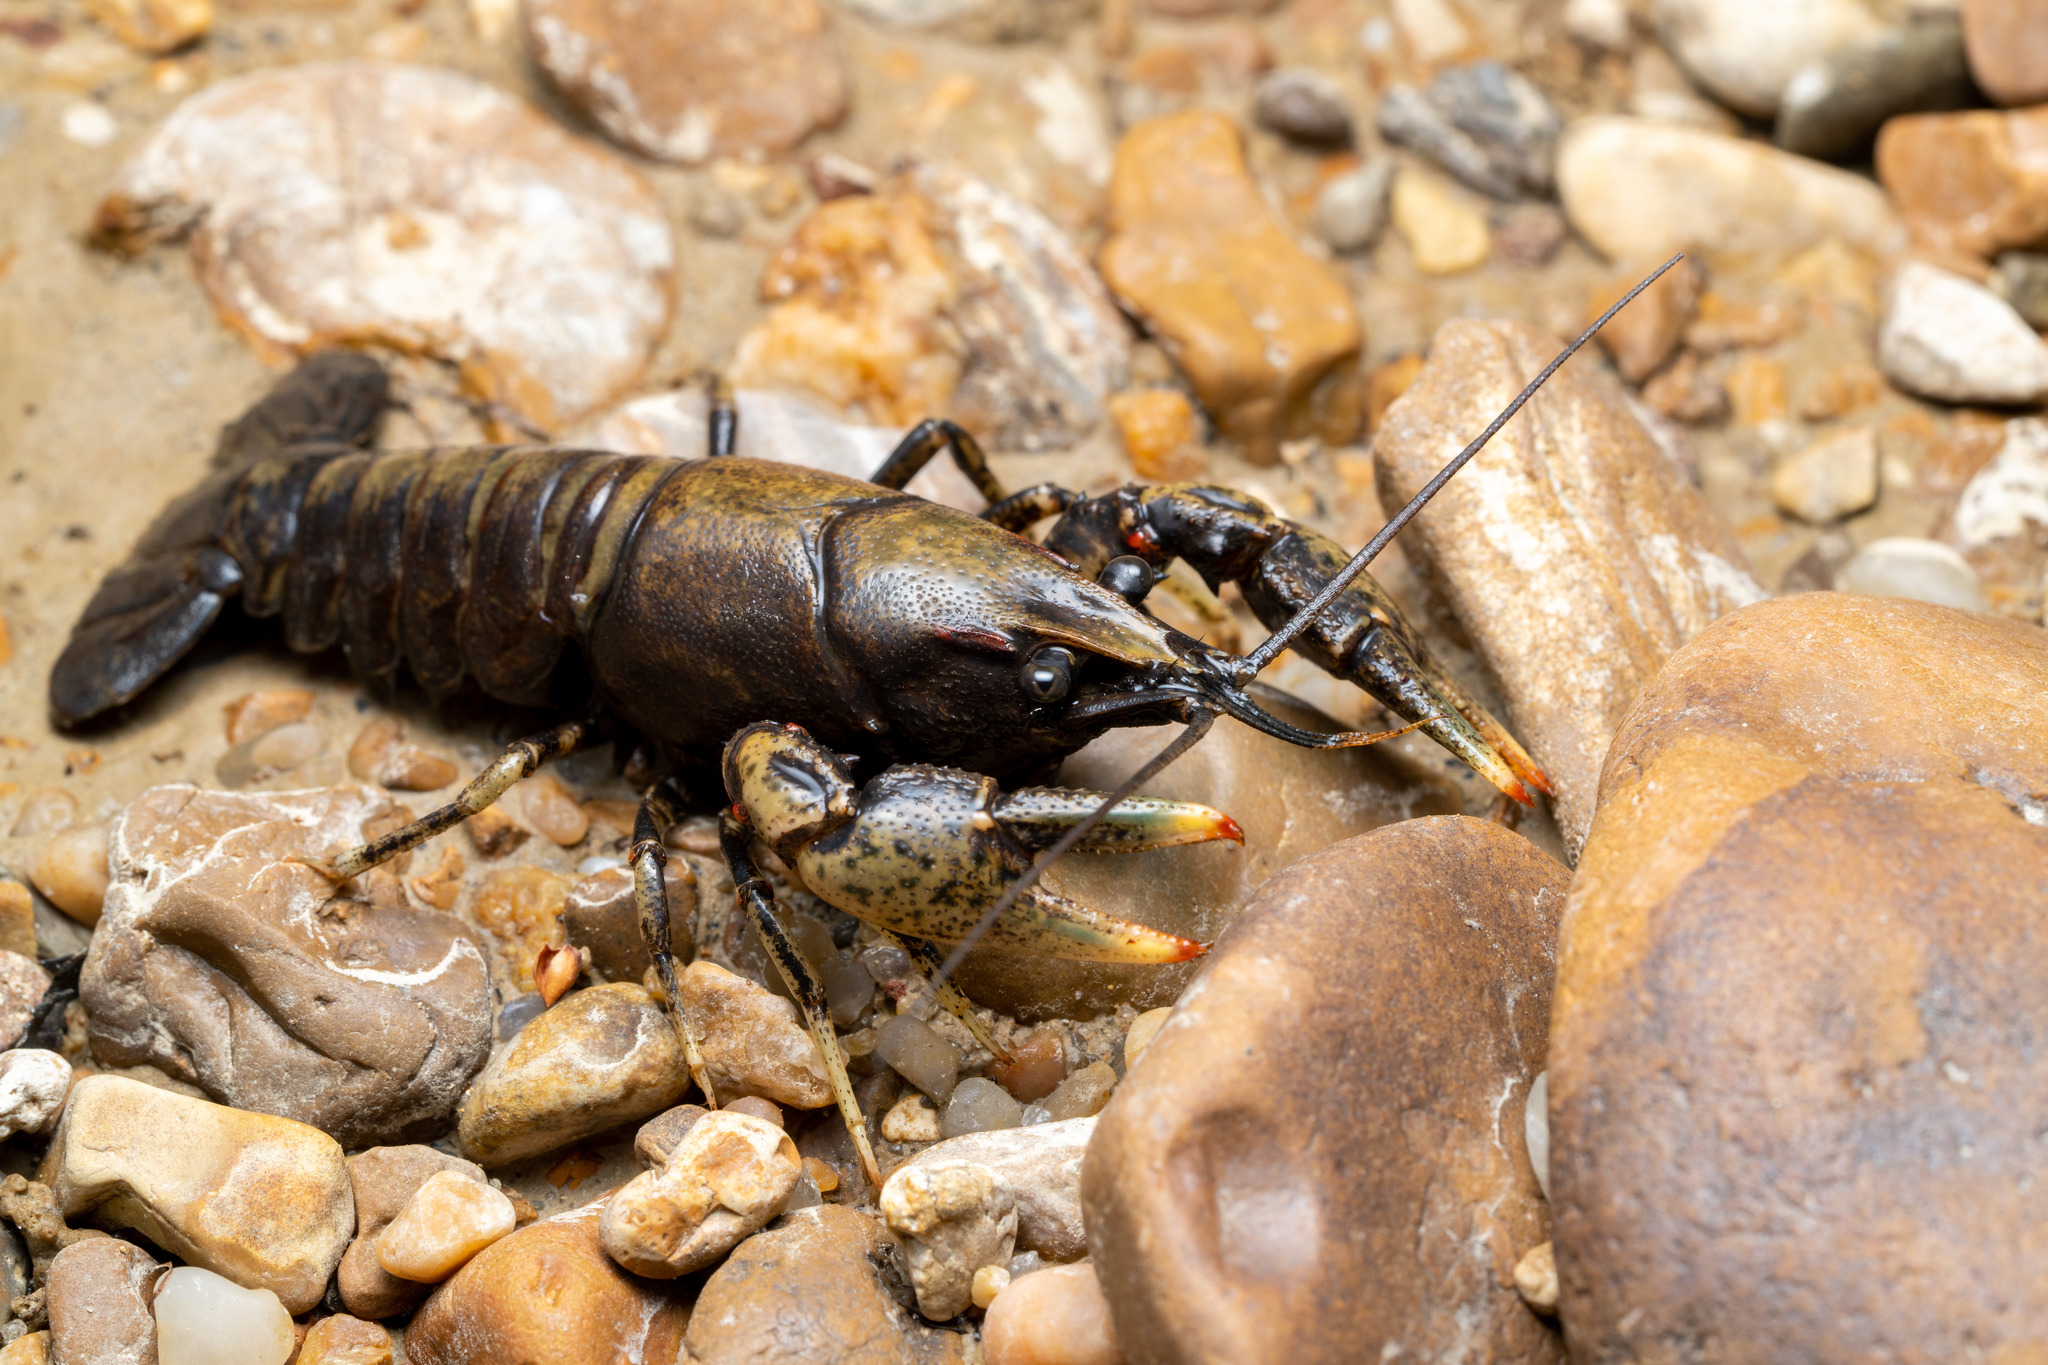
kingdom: Animalia
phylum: Arthropoda
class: Malacostraca
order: Decapoda
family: Cambaridae
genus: Faxonius
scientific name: Faxonius hartfieldi
